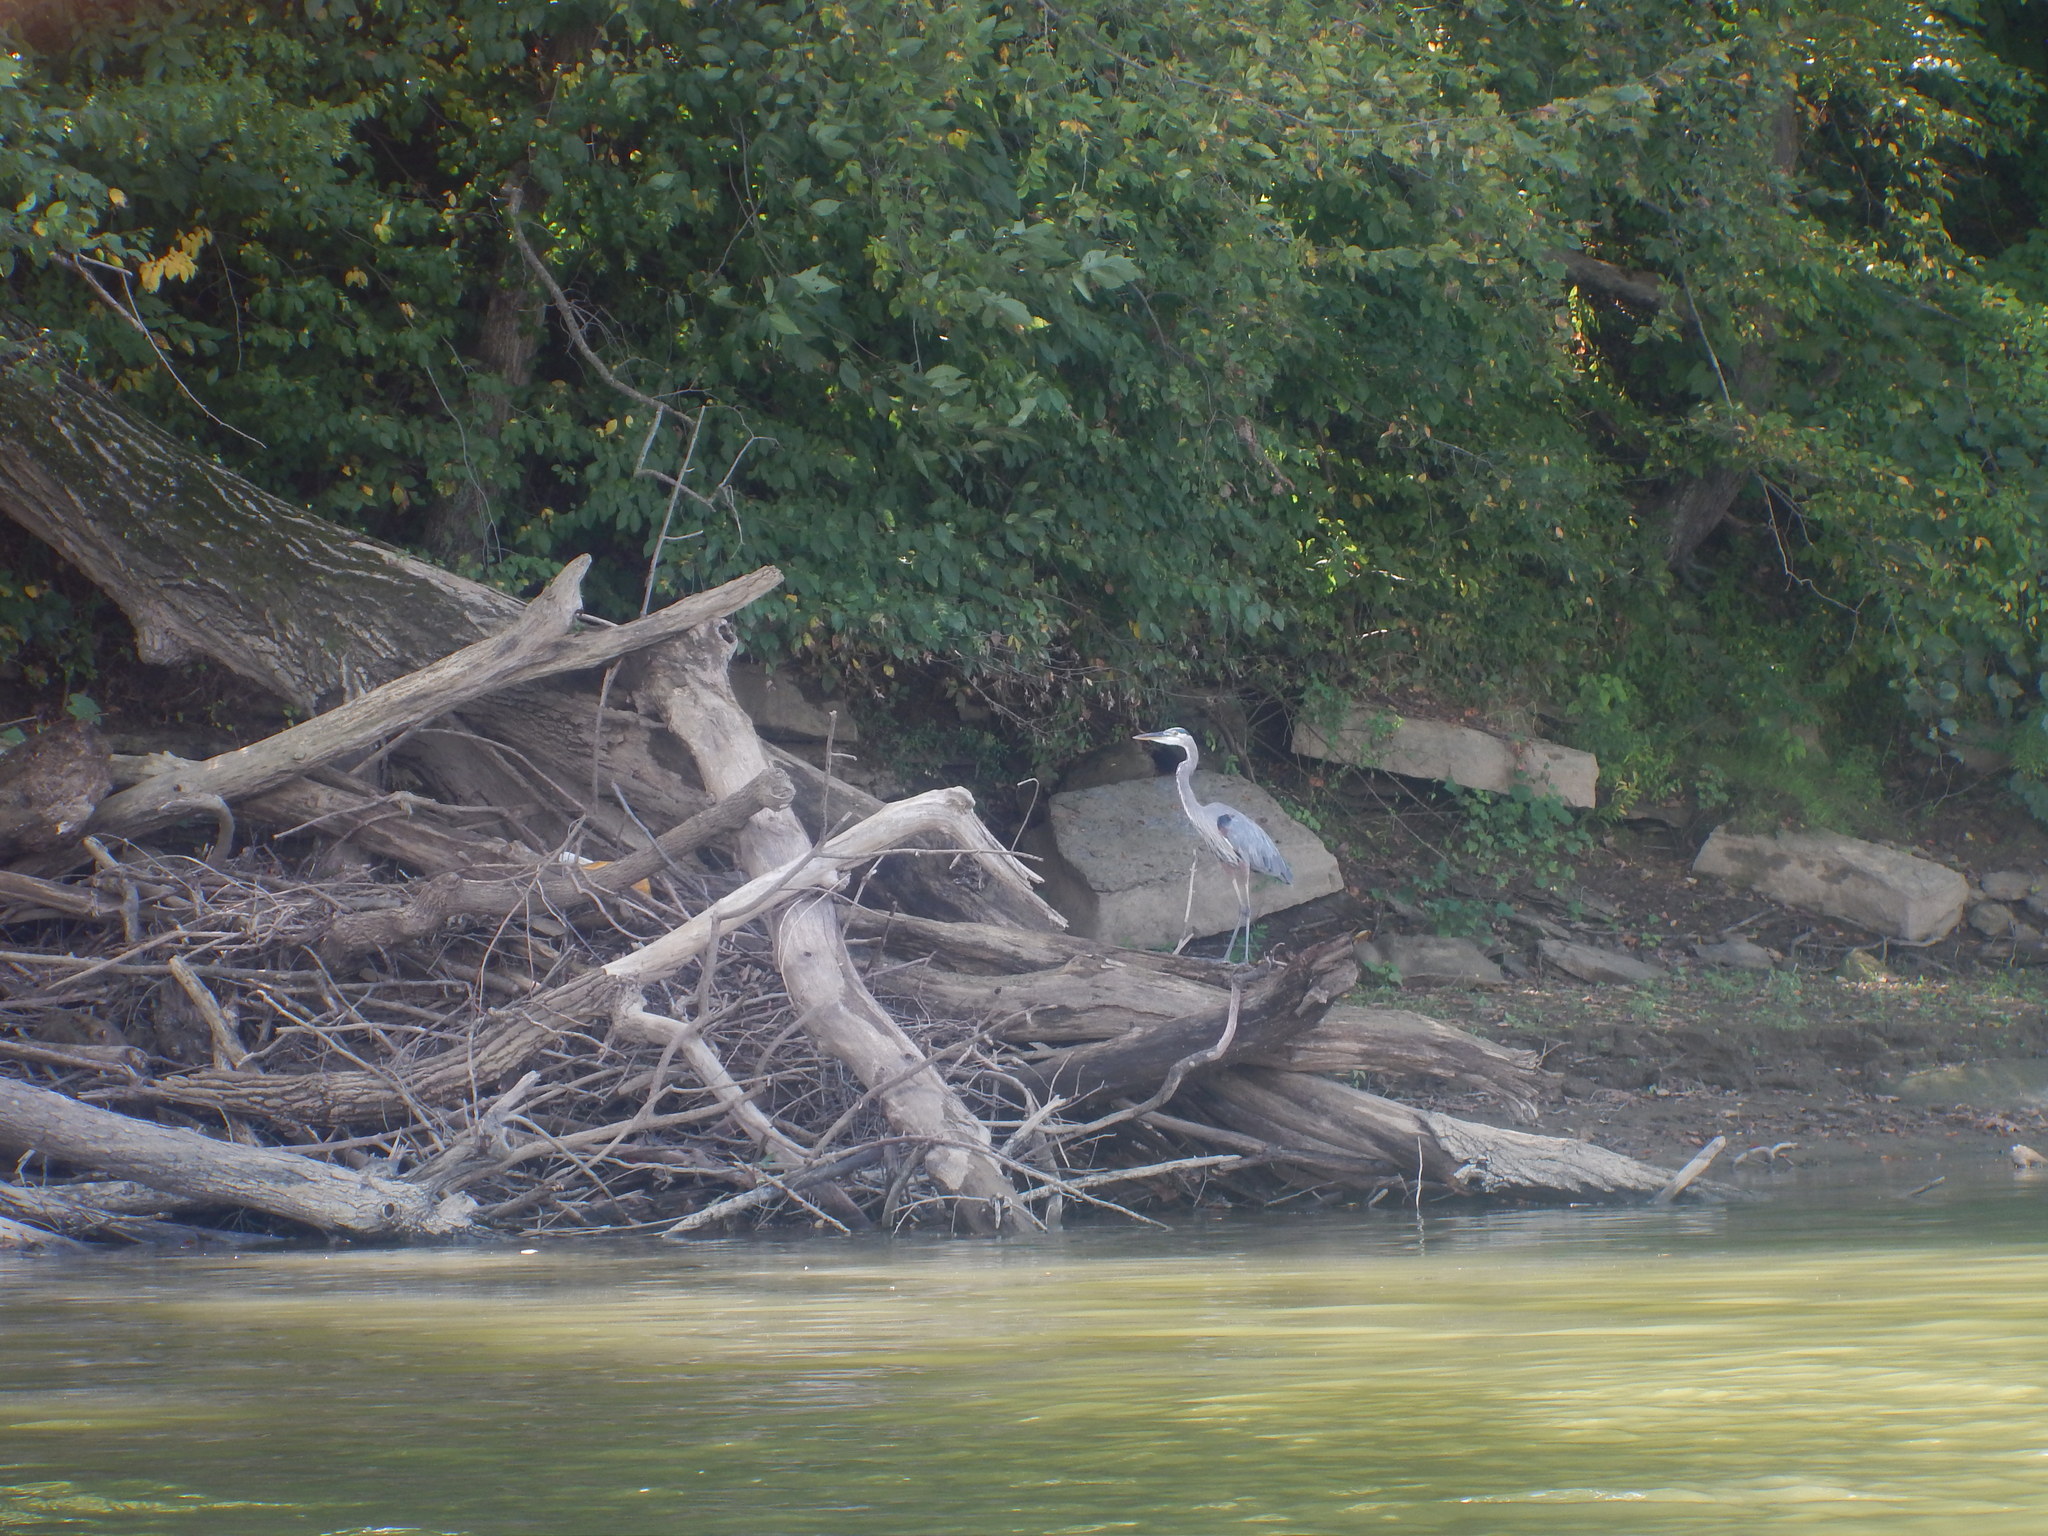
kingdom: Animalia
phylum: Chordata
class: Aves
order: Pelecaniformes
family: Ardeidae
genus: Ardea
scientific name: Ardea herodias
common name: Great blue heron
